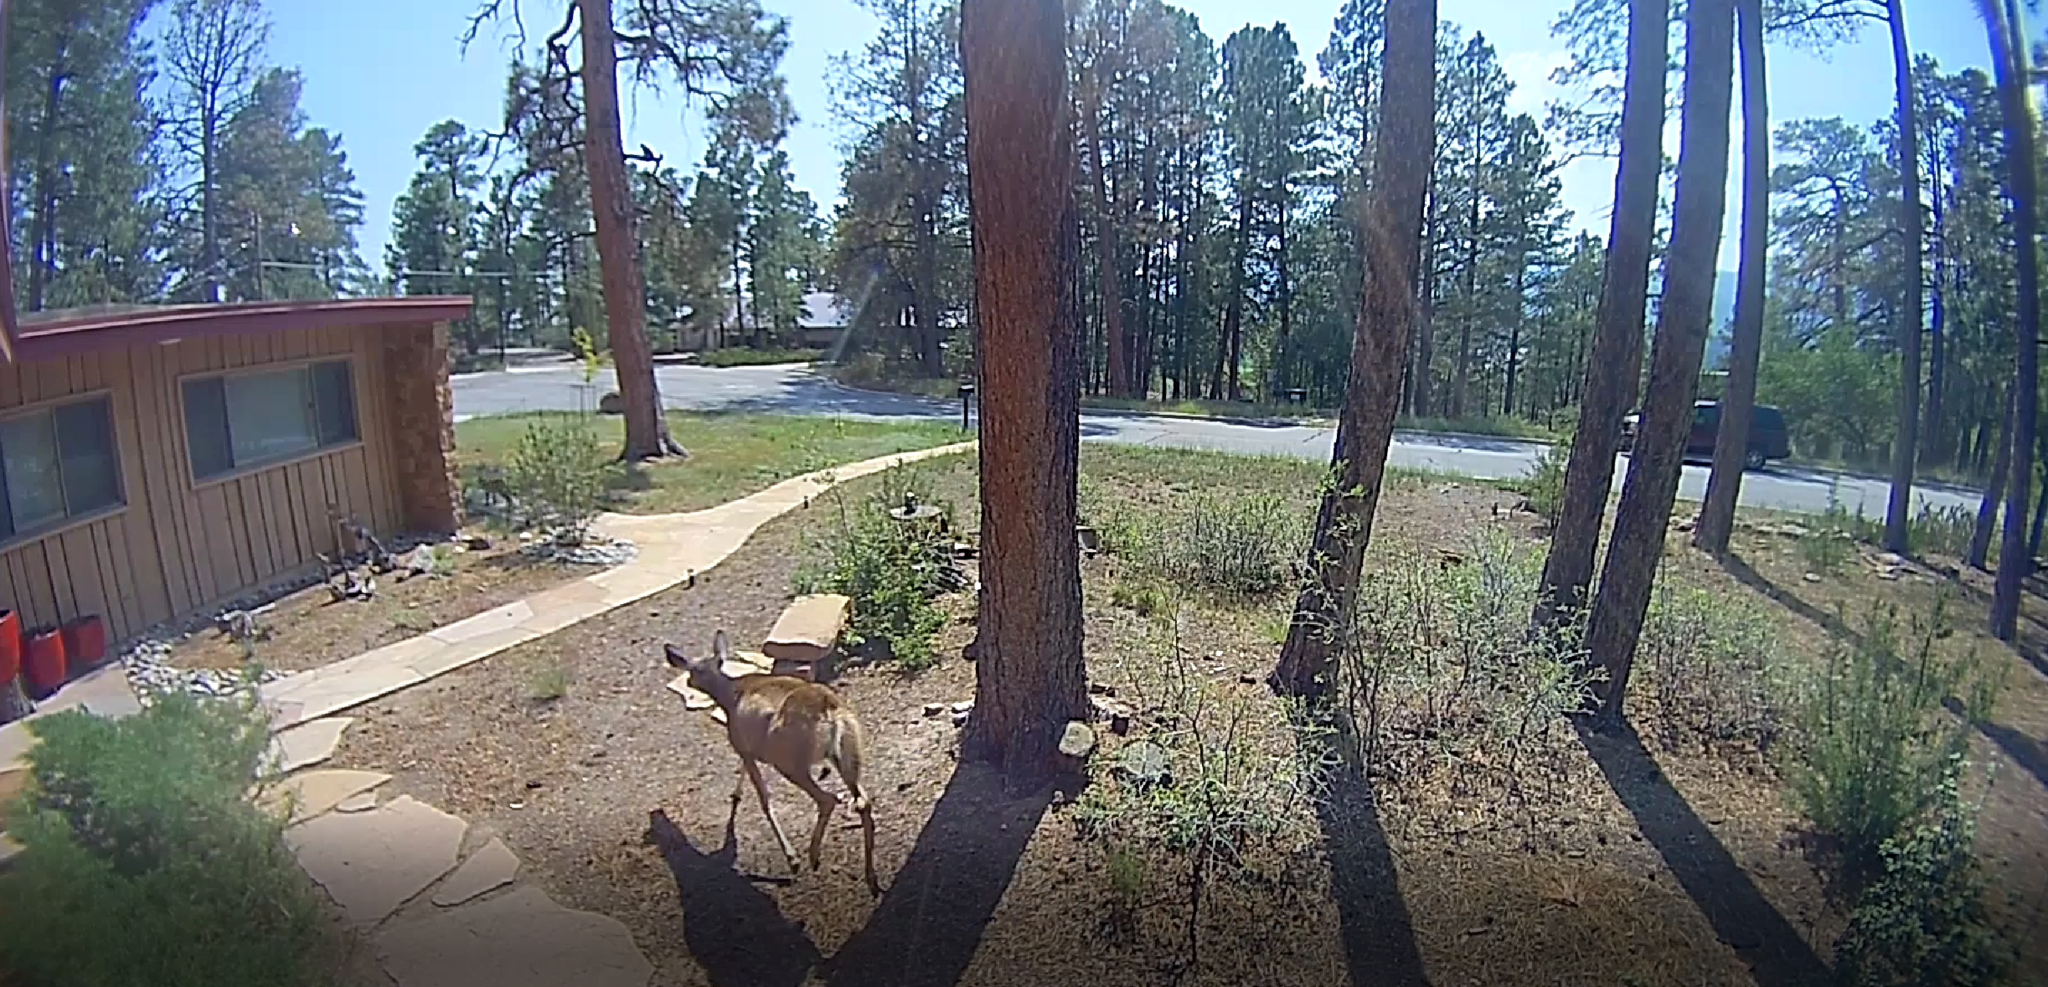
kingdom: Animalia
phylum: Chordata
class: Mammalia
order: Artiodactyla
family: Cervidae
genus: Odocoileus
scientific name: Odocoileus hemionus
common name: Mule deer
